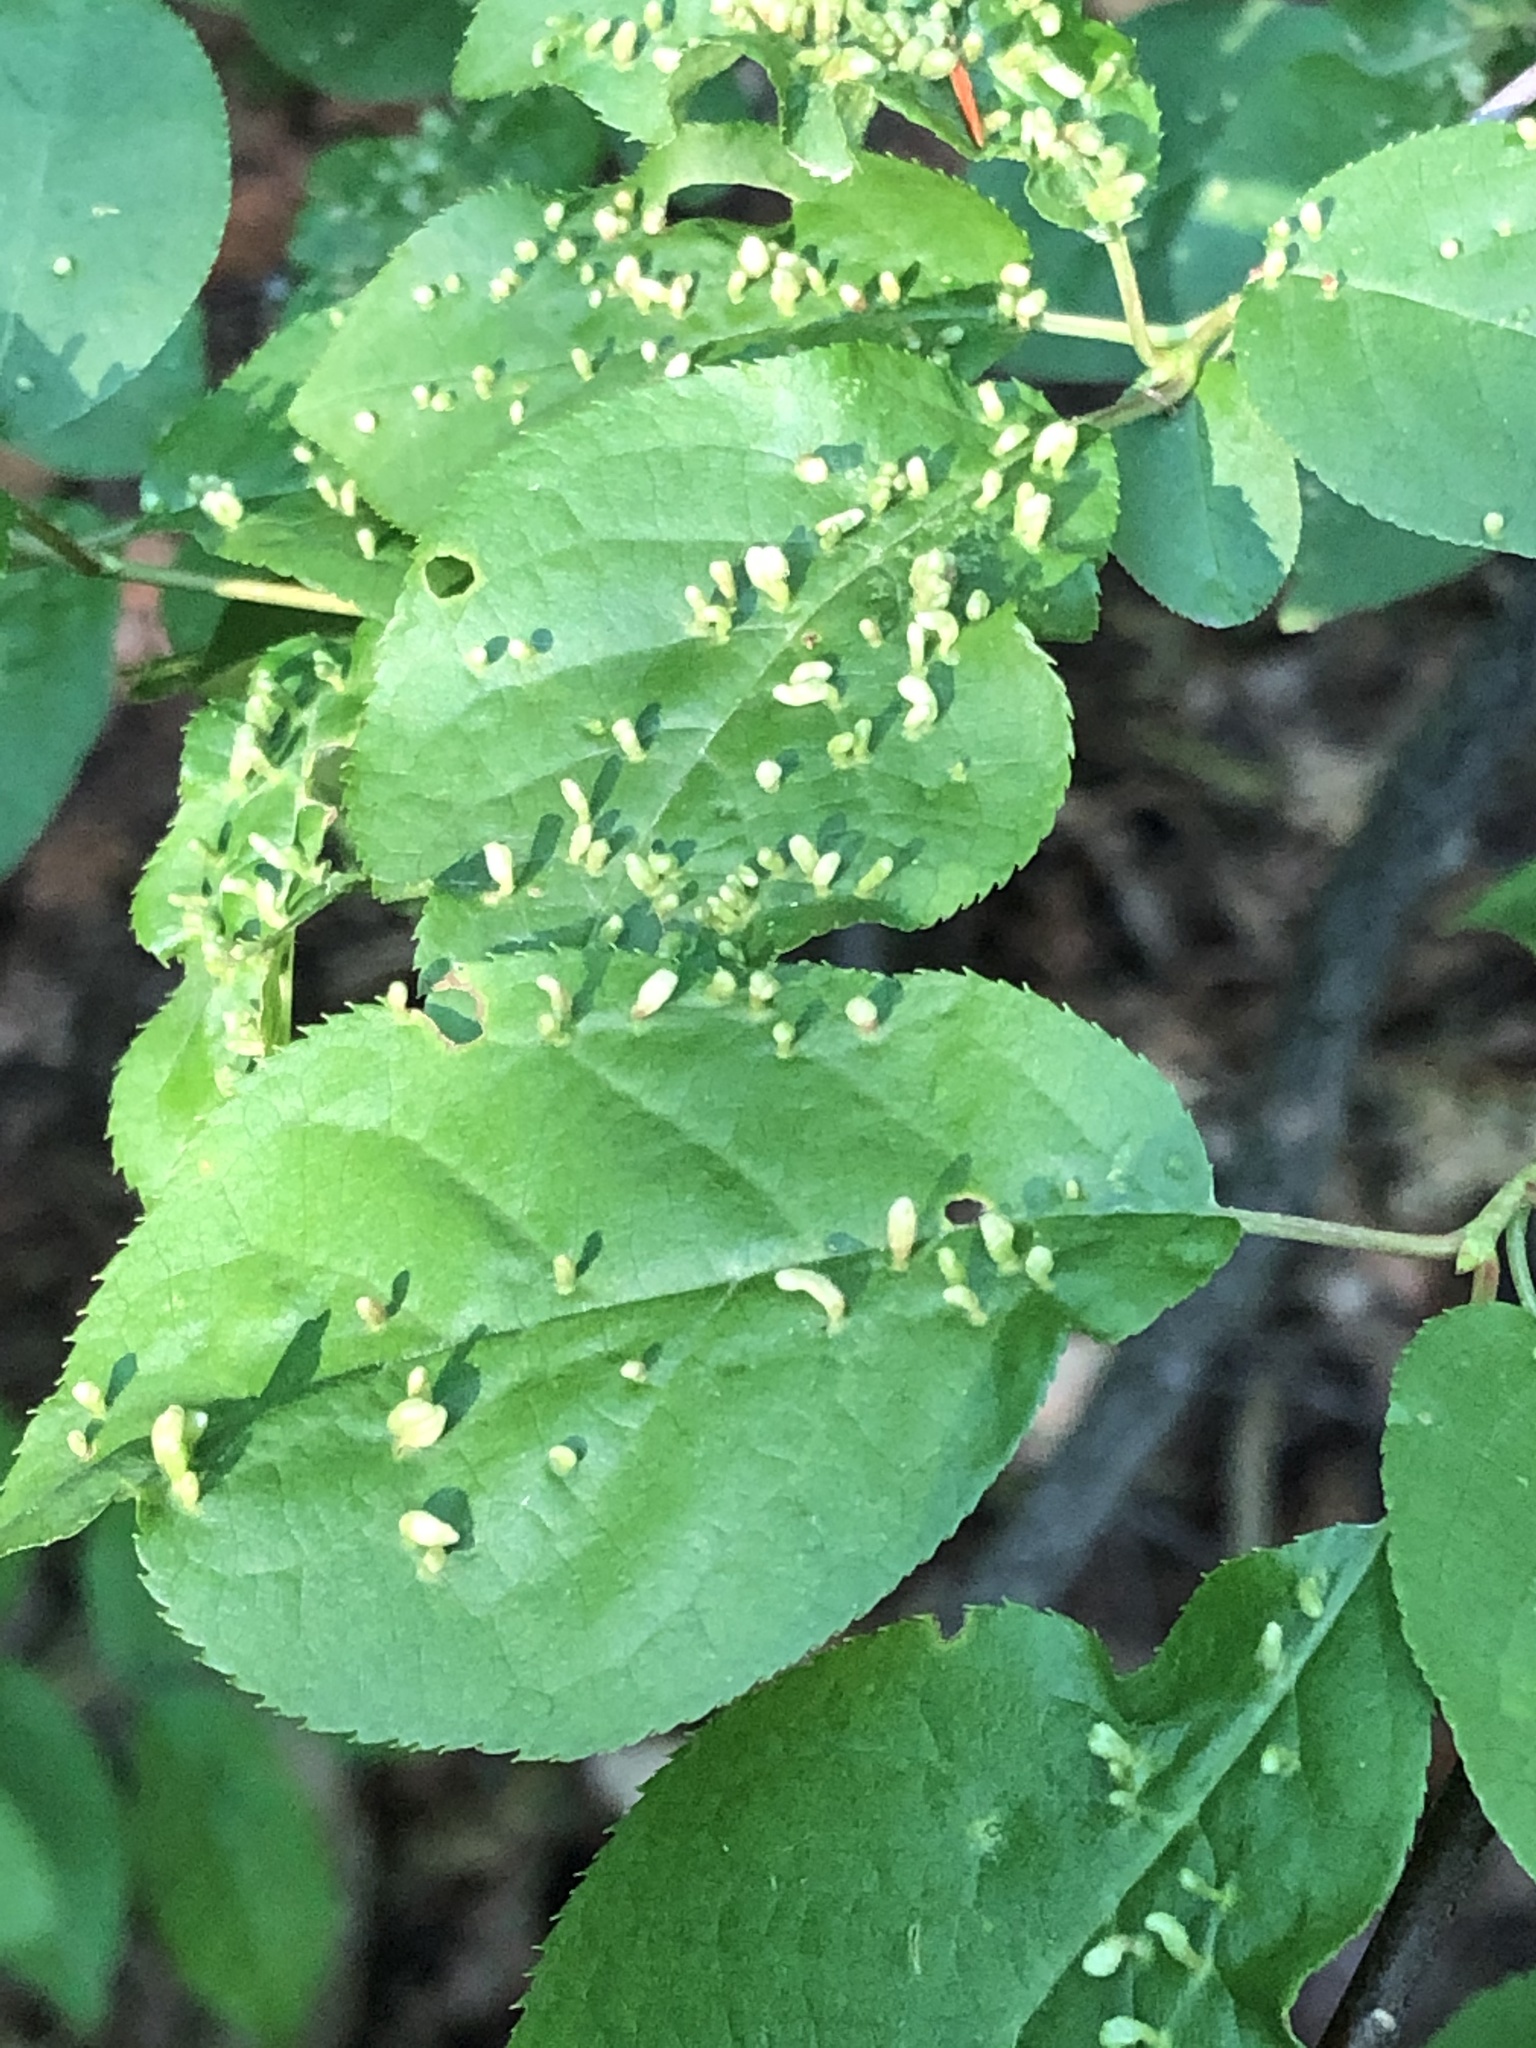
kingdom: Animalia
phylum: Arthropoda
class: Arachnida
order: Trombidiformes
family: Eriophyidae
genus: Eriophyes
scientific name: Eriophyes emarginatae
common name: Plum leaf gall mite
